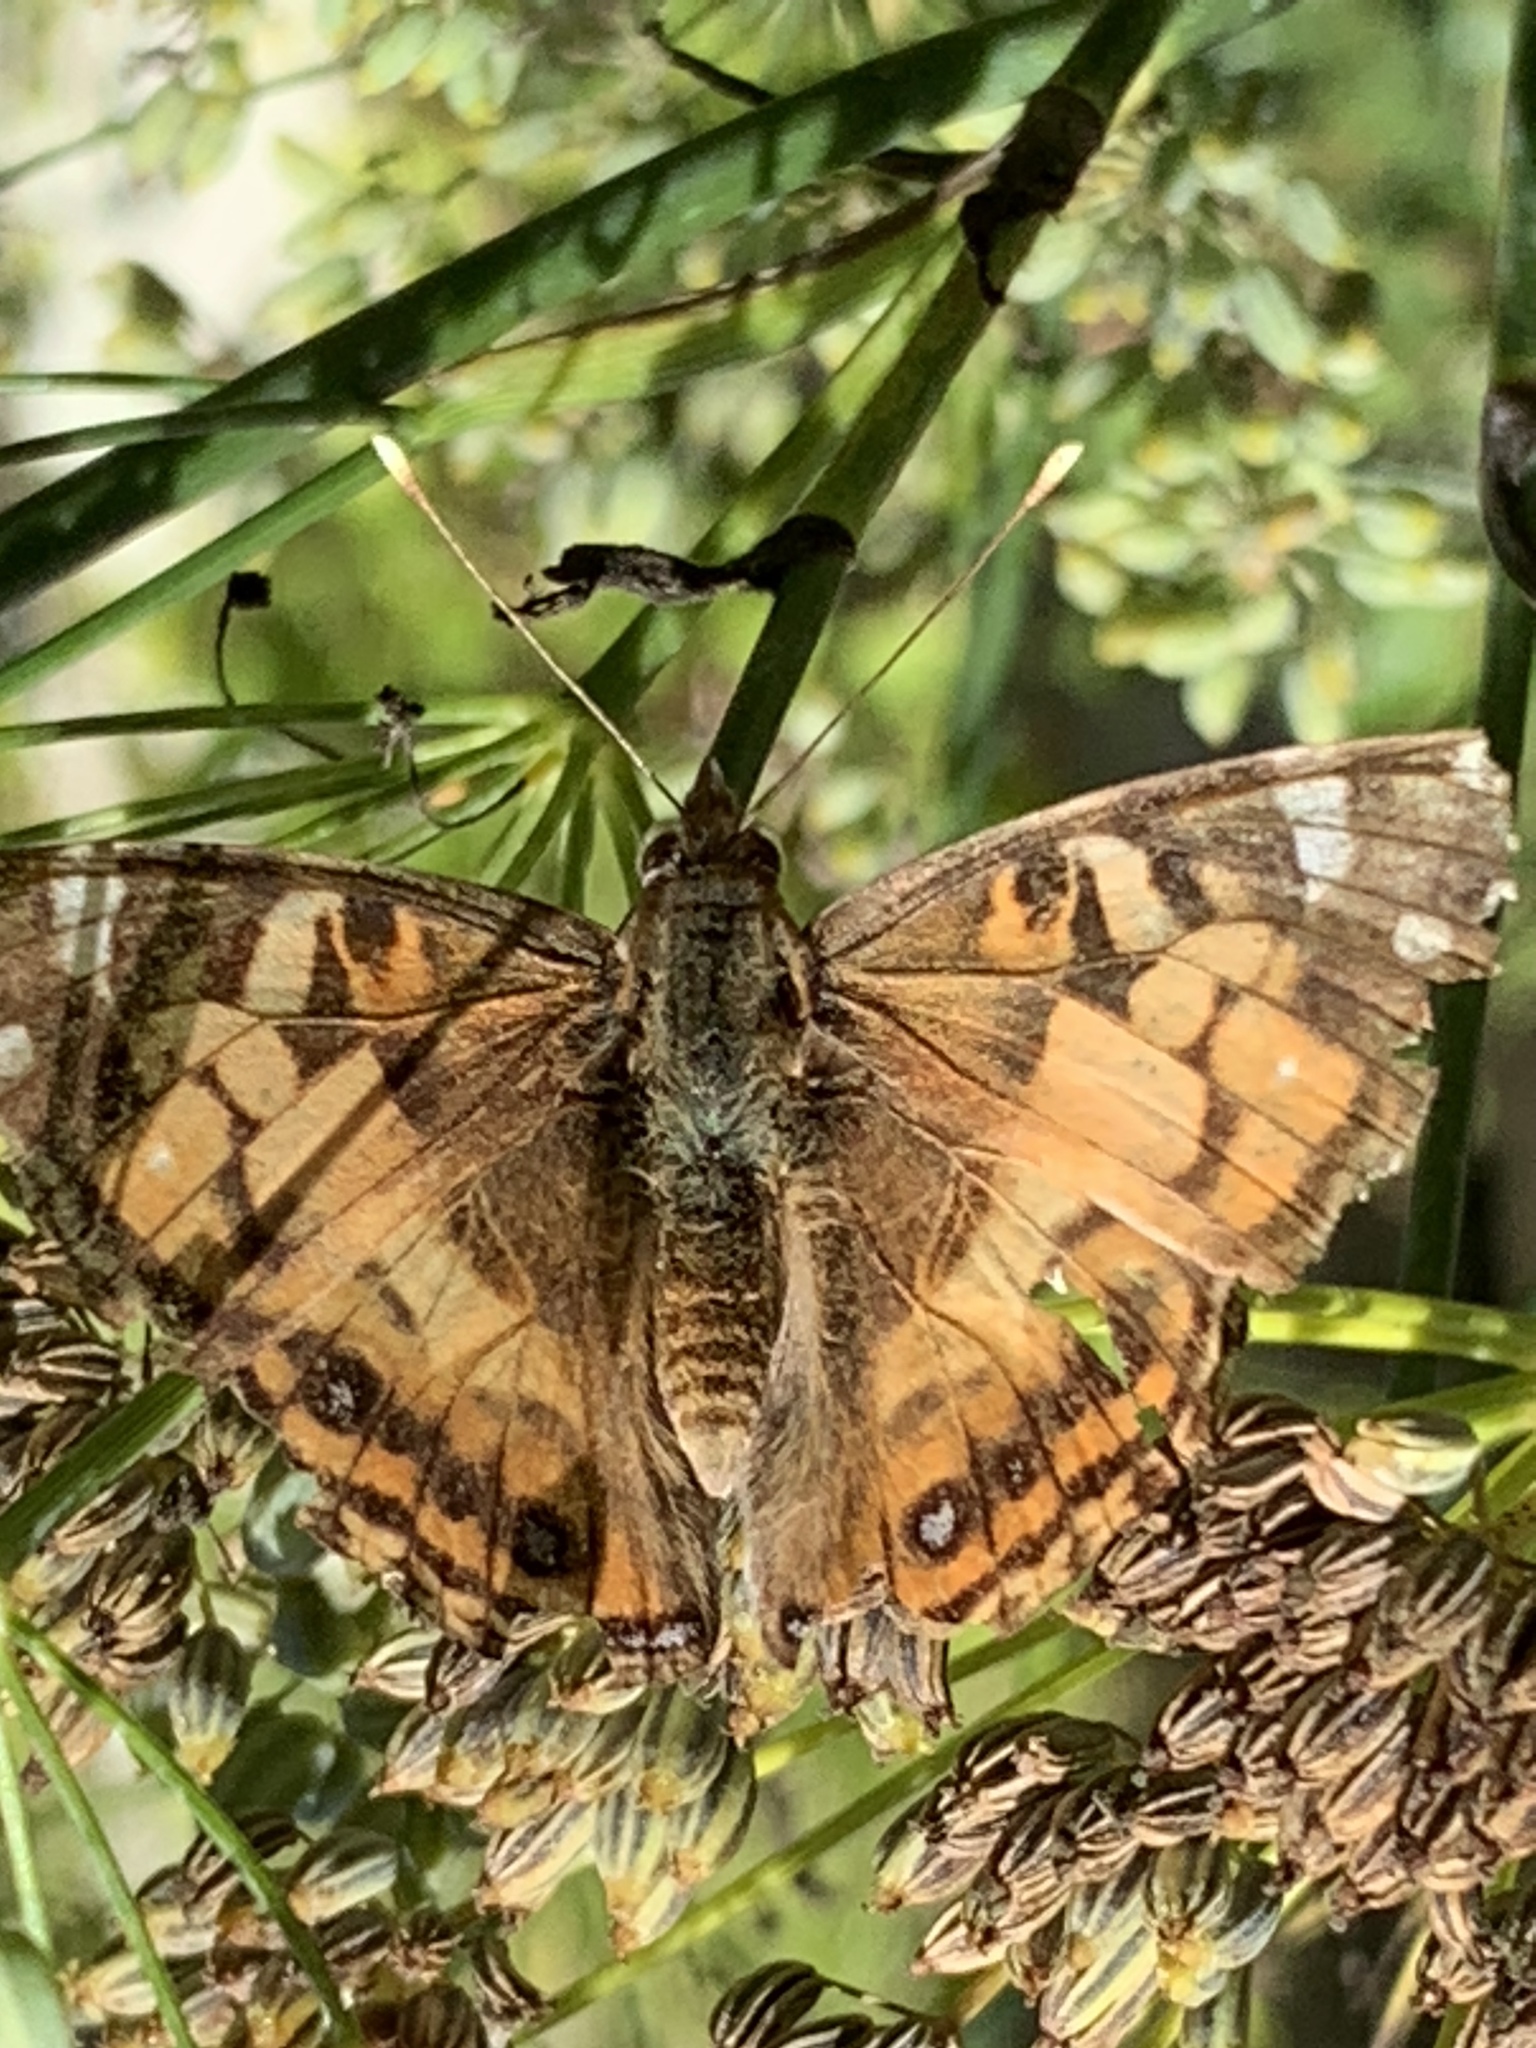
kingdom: Animalia
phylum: Arthropoda
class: Insecta
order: Lepidoptera
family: Nymphalidae
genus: Vanessa
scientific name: Vanessa virginiensis
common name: American lady
